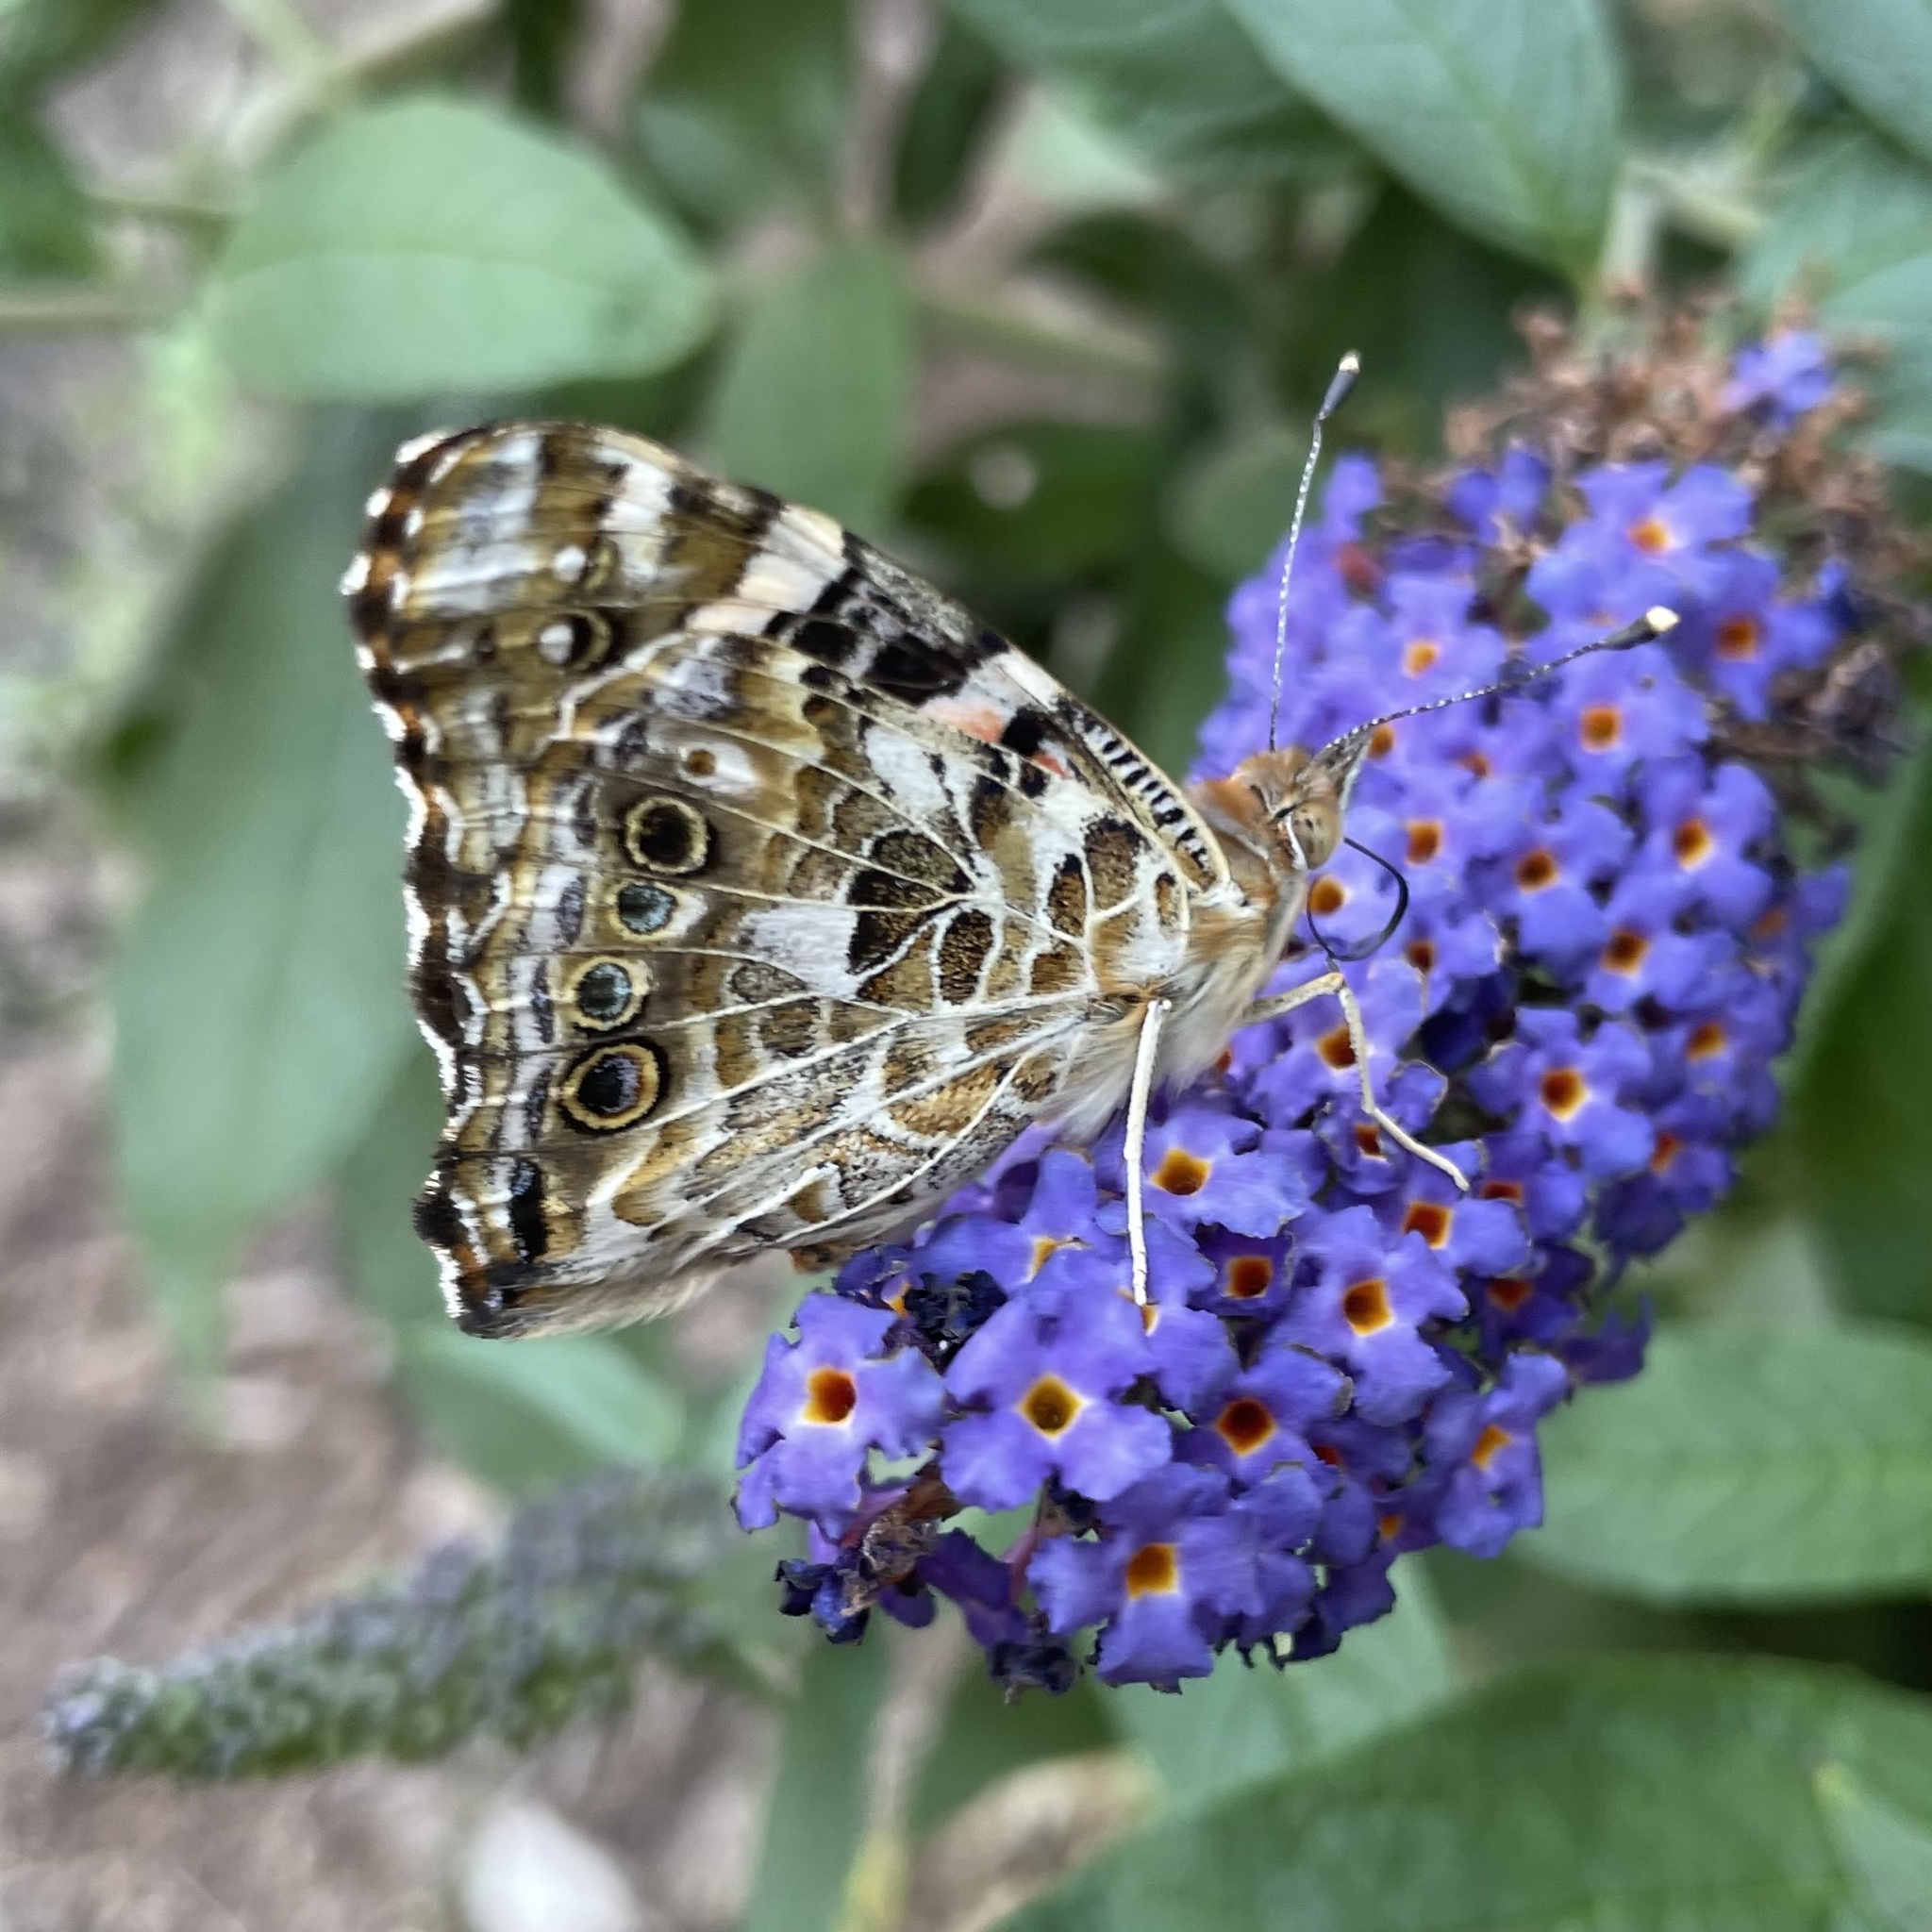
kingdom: Animalia
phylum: Arthropoda
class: Insecta
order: Lepidoptera
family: Nymphalidae
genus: Vanessa
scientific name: Vanessa cardui
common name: Painted lady
